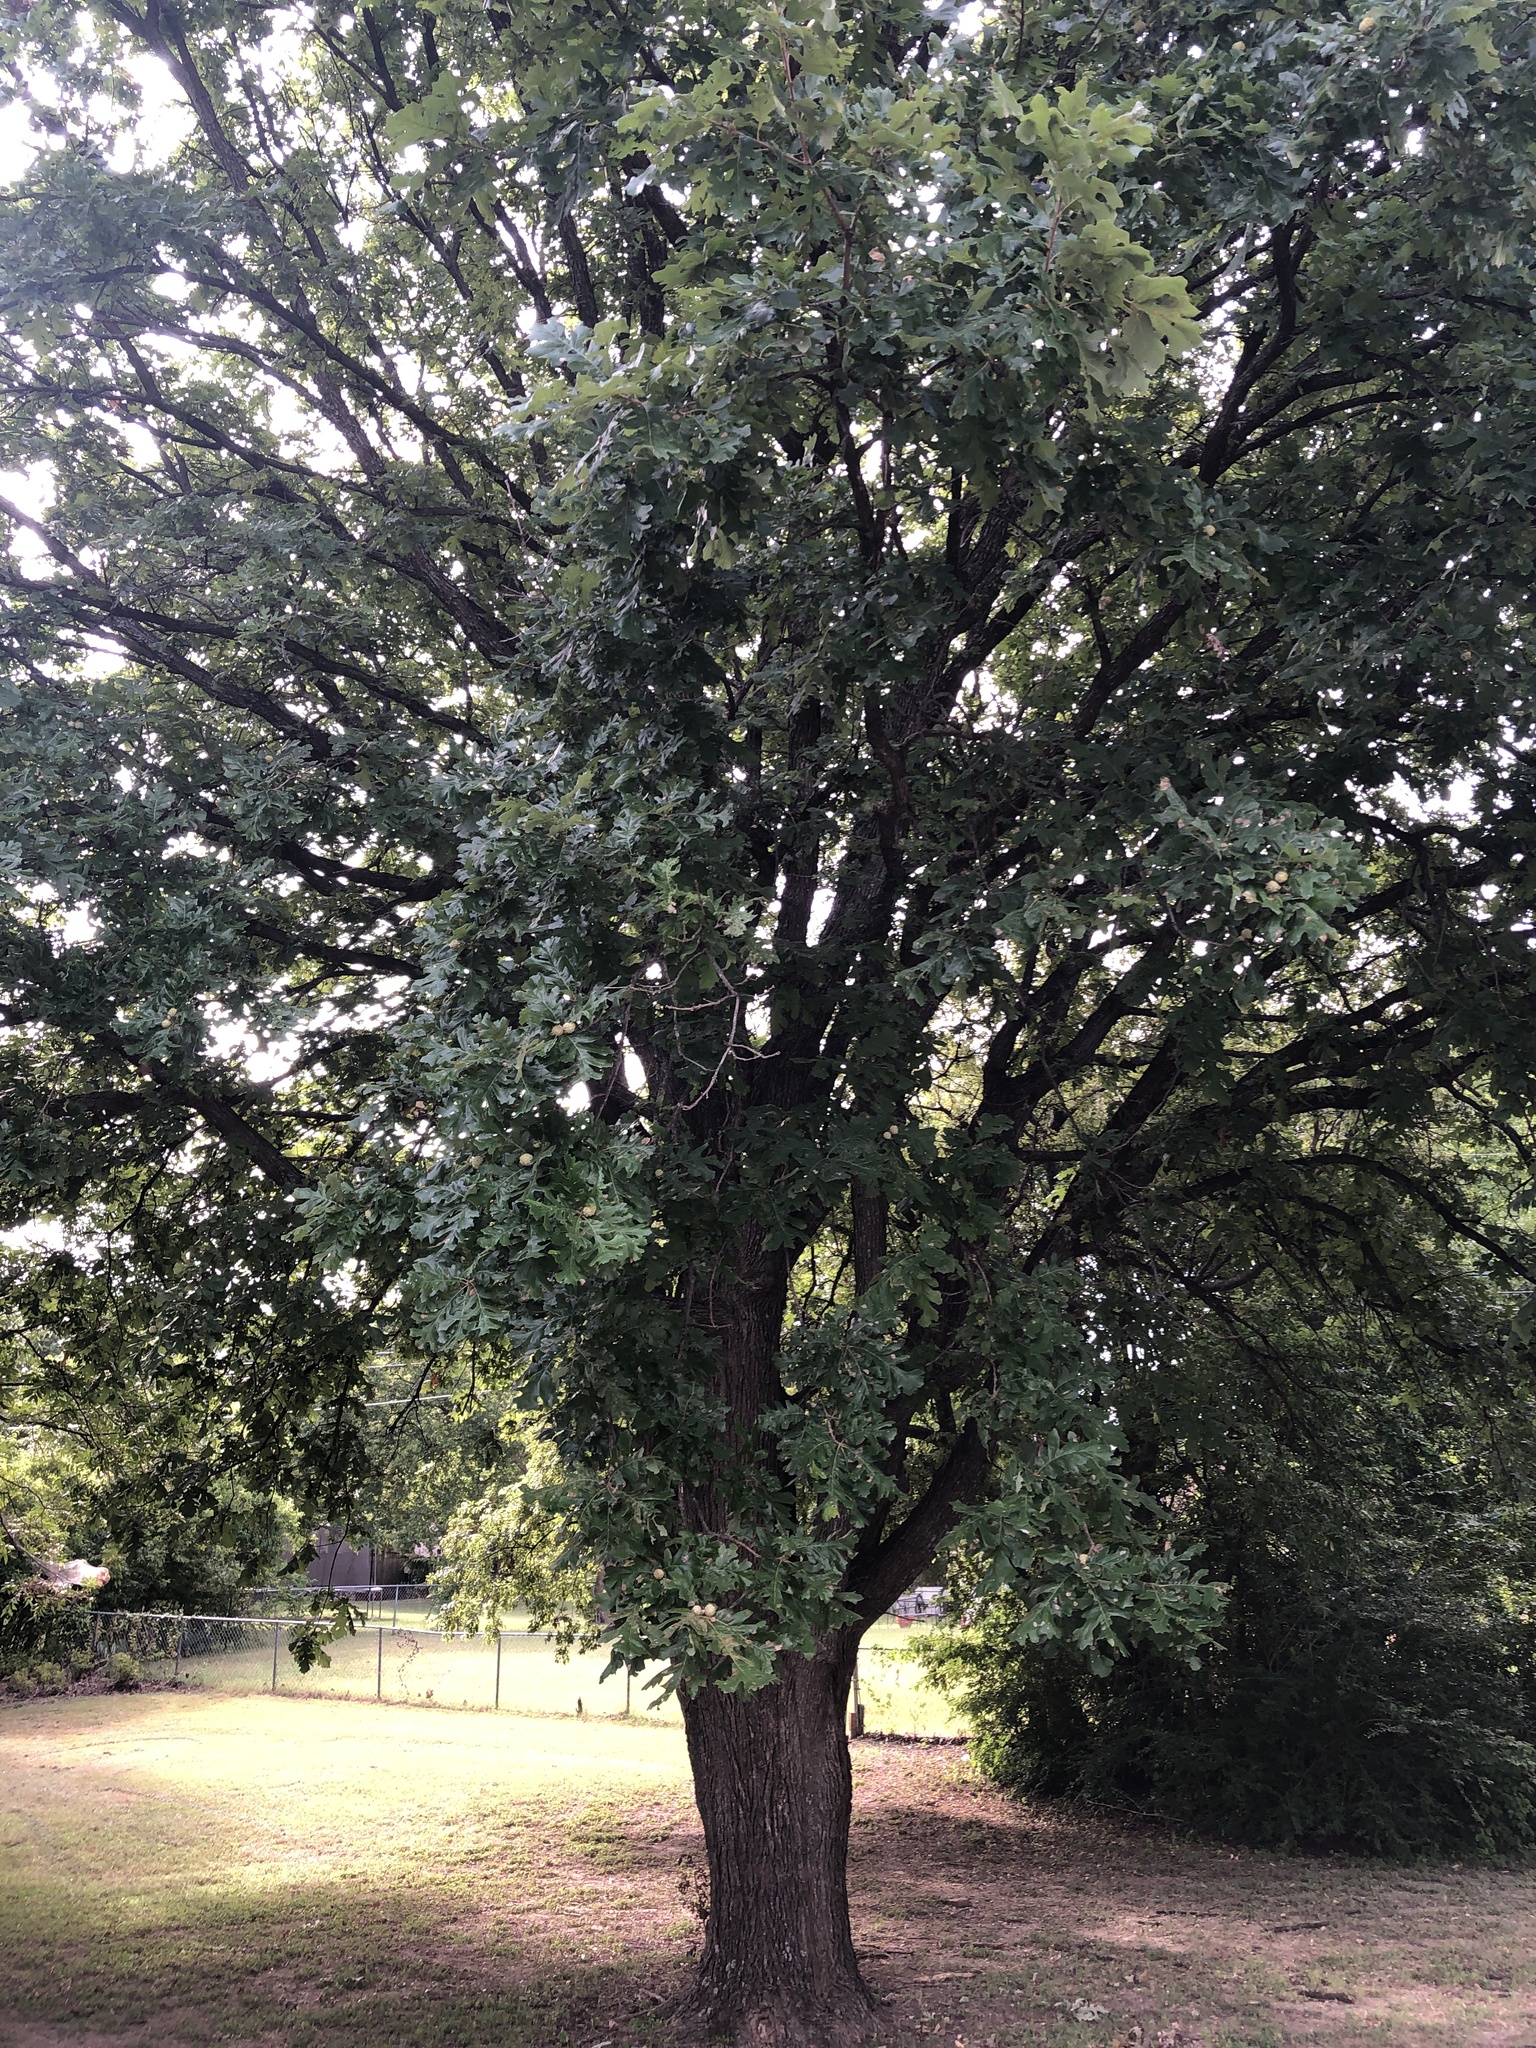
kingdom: Plantae
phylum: Tracheophyta
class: Magnoliopsida
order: Fagales
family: Fagaceae
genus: Quercus
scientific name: Quercus macrocarpa
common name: Bur oak
